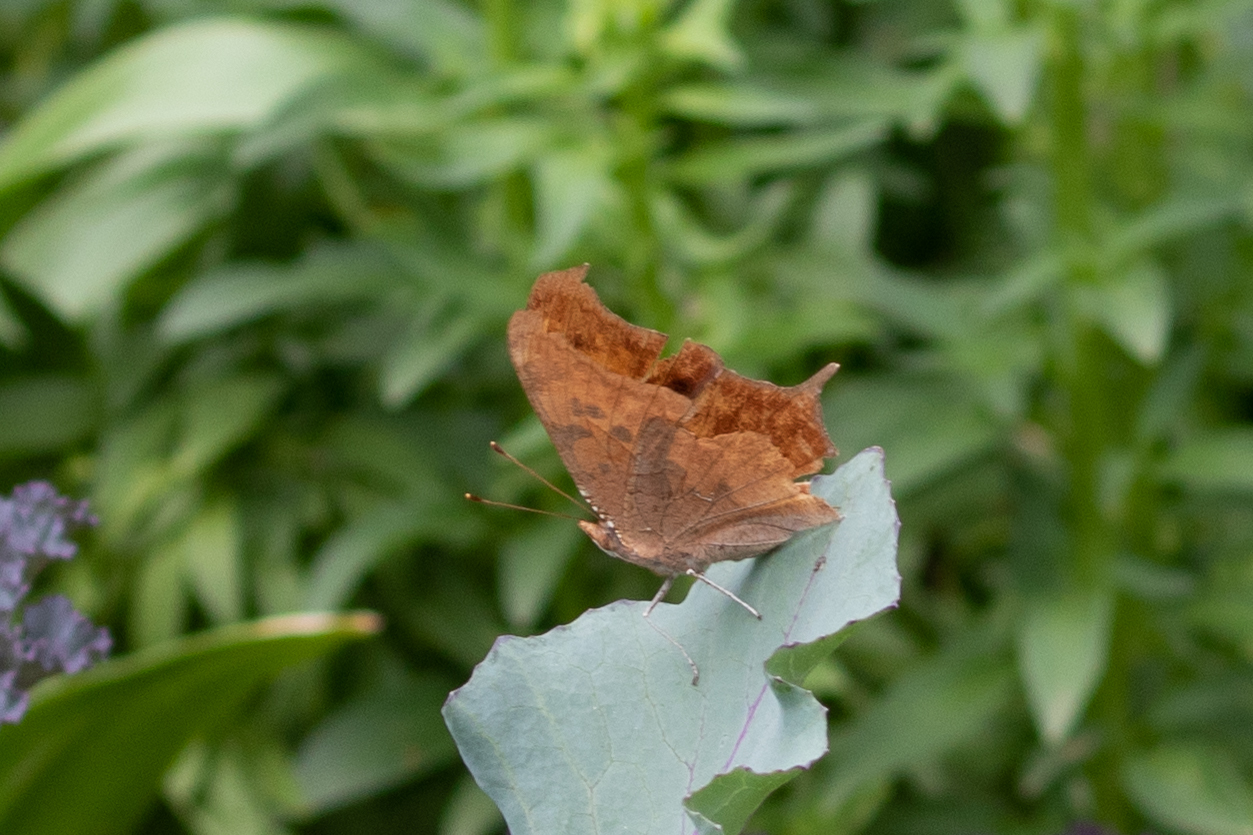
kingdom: Animalia
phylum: Arthropoda
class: Insecta
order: Lepidoptera
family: Nymphalidae
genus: Polygonia
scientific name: Polygonia interrogationis
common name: Question mark
